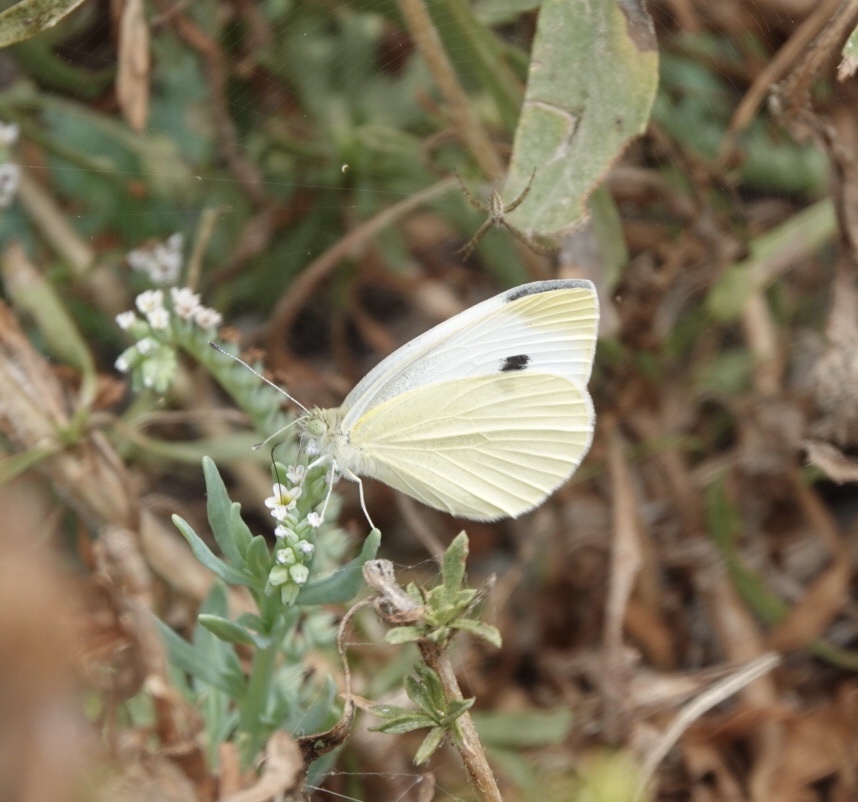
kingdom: Animalia
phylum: Arthropoda
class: Insecta
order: Lepidoptera
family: Pieridae
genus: Pieris
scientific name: Pieris rapae
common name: Small white
